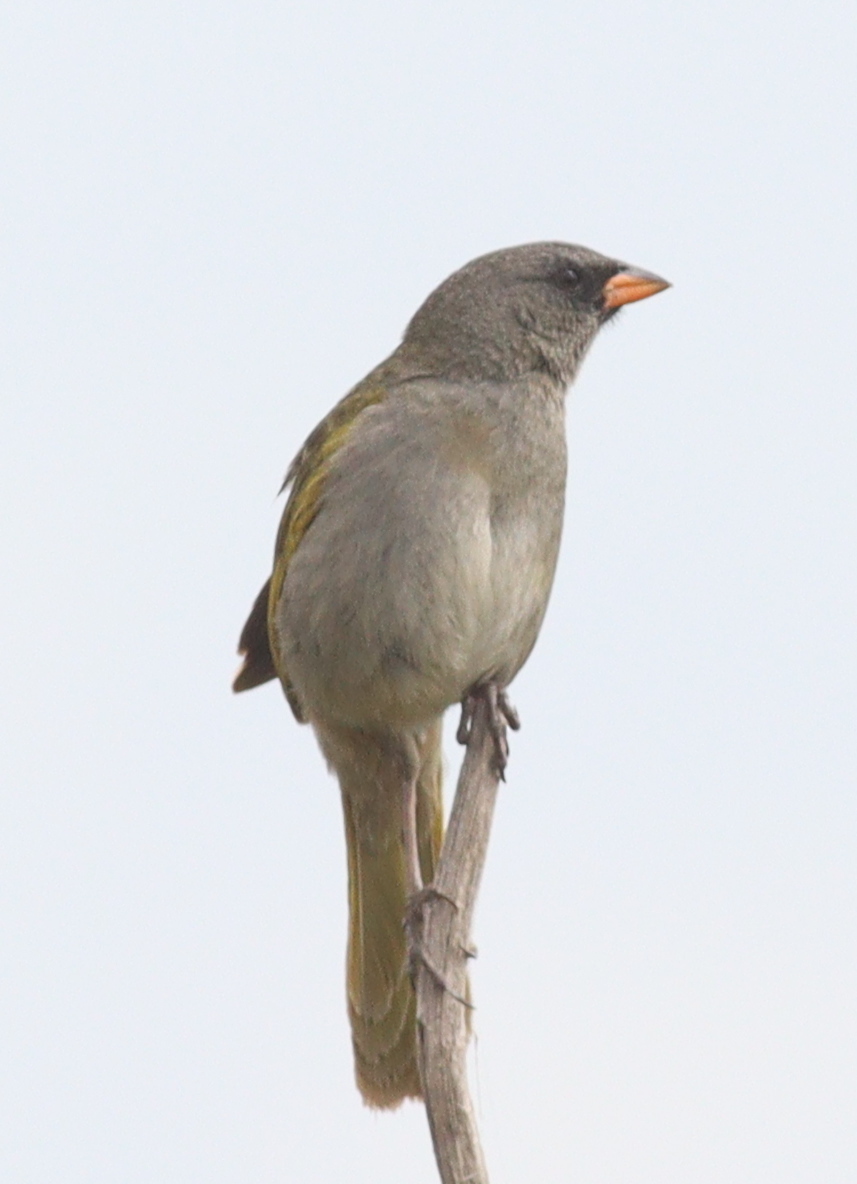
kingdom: Animalia
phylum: Chordata
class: Aves
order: Passeriformes
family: Thraupidae
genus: Embernagra
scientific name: Embernagra platensis
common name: Pampa finch
